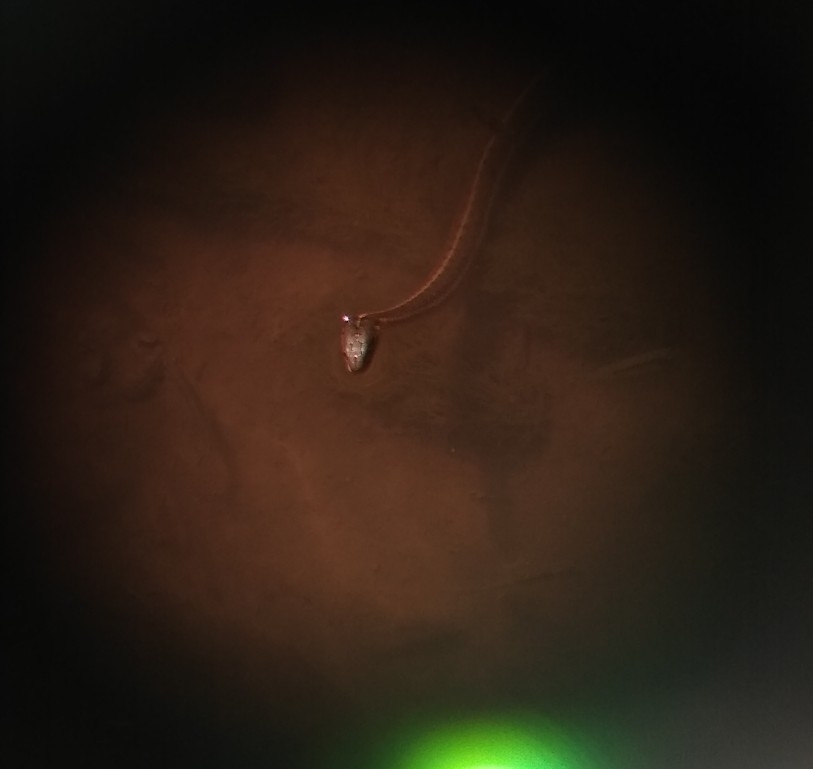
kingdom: Animalia
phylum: Chordata
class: Squamata
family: Colubridae
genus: Thamnophis
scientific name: Thamnophis elegans
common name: Western terrestrial garter snake
